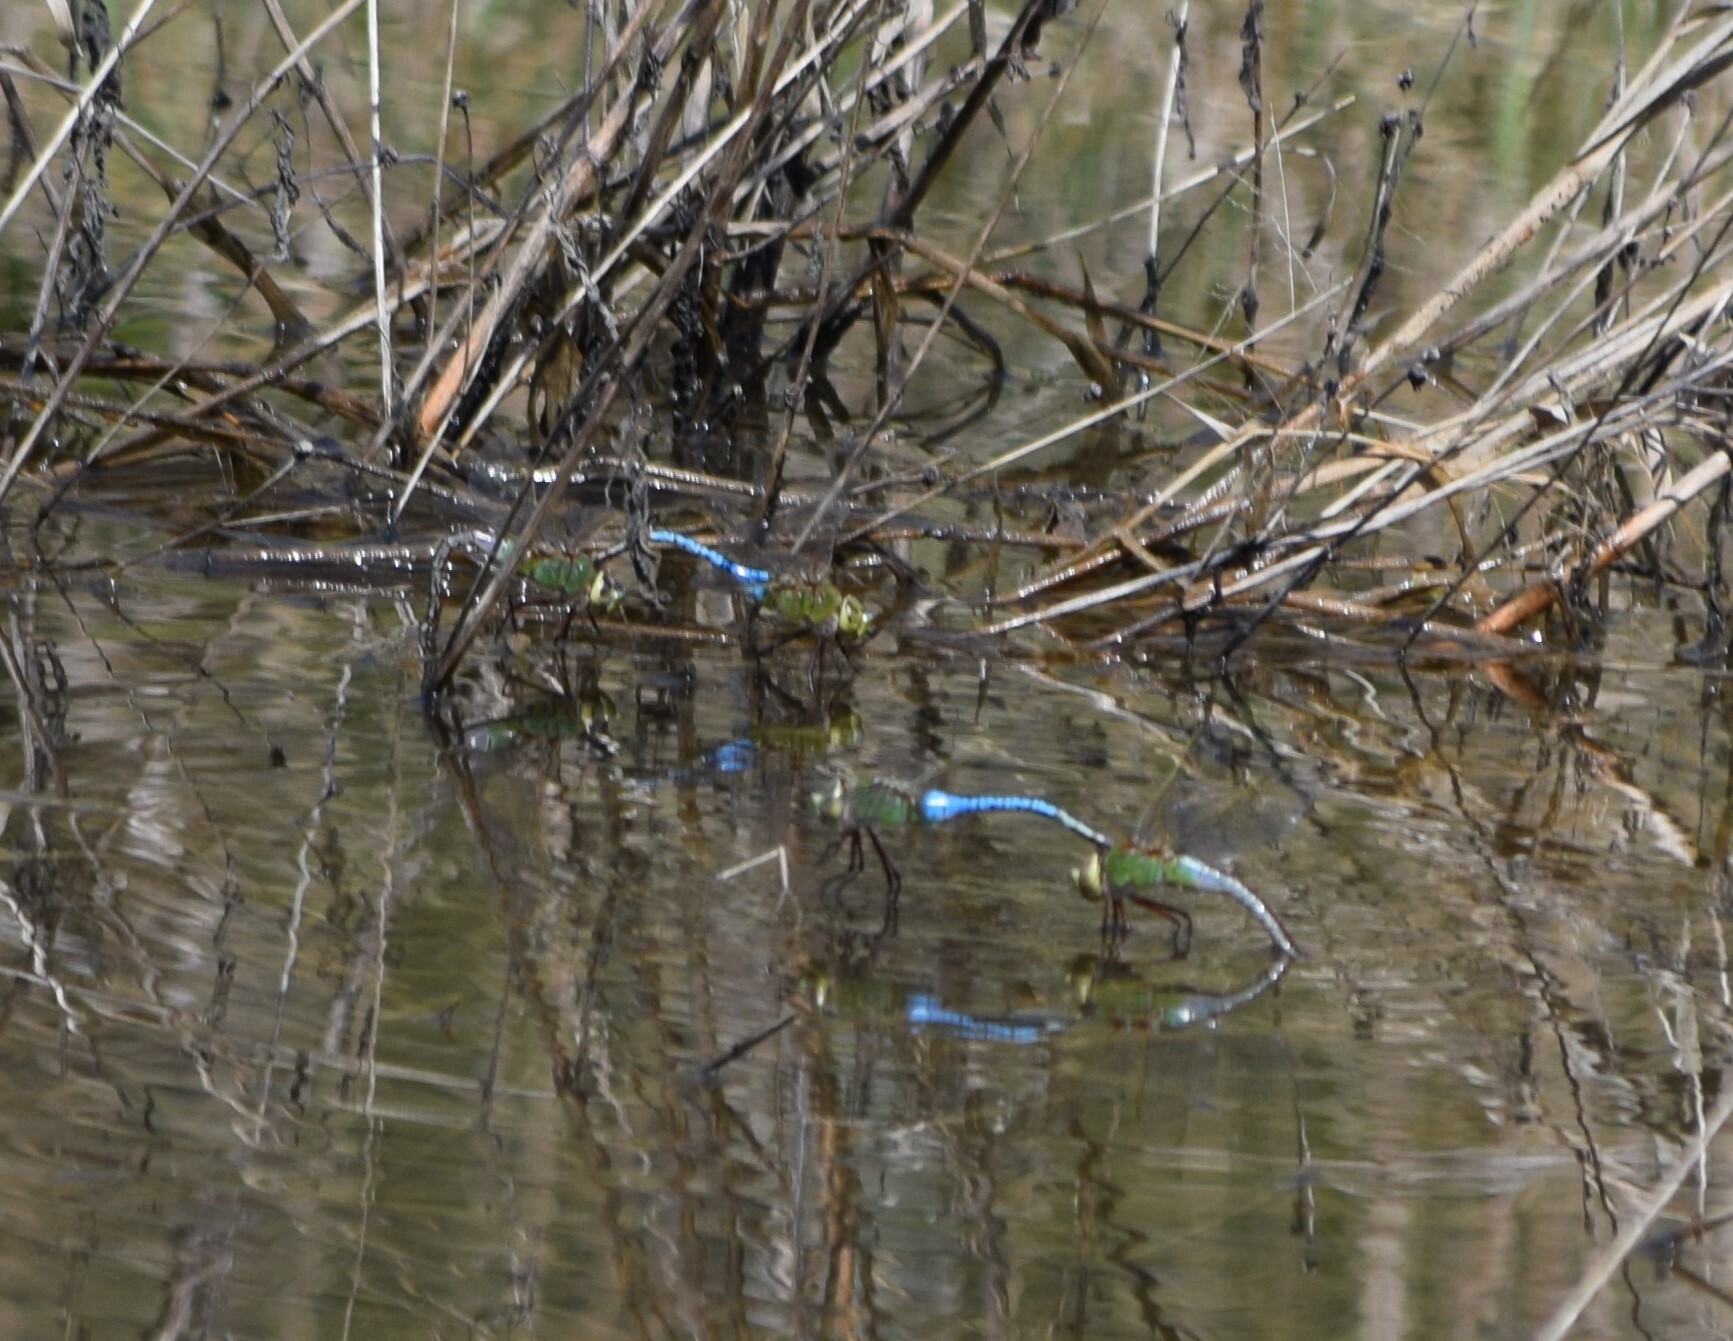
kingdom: Animalia
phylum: Arthropoda
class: Insecta
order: Odonata
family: Aeshnidae
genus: Anax
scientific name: Anax junius
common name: Common green darner
